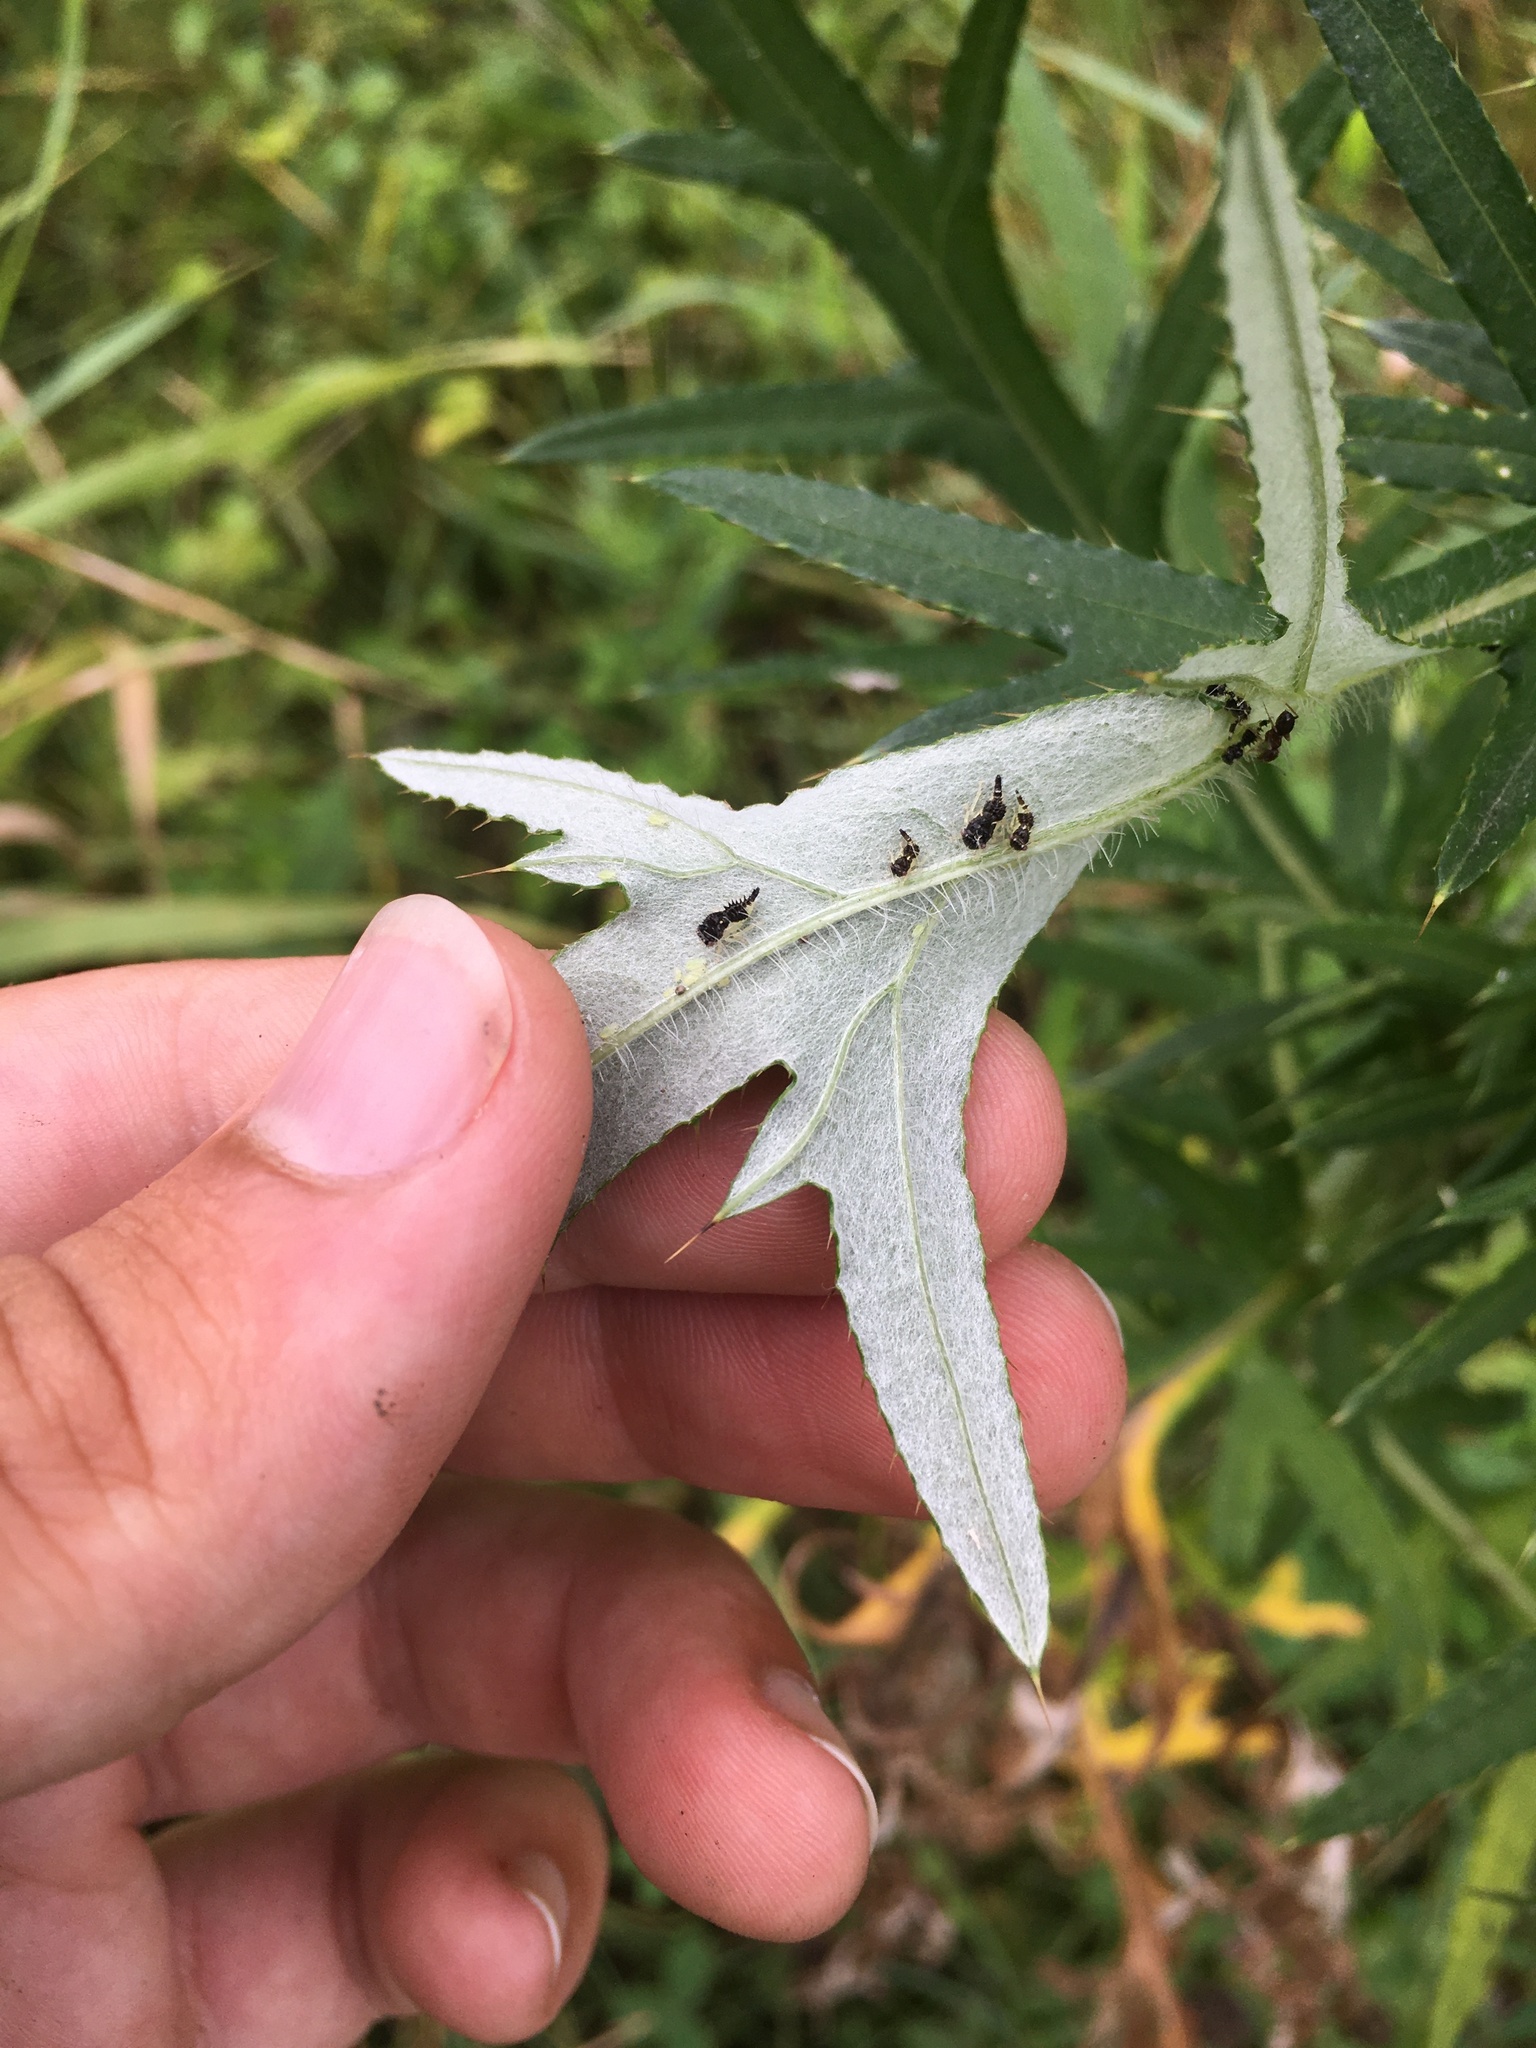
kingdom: Plantae
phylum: Tracheophyta
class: Magnoliopsida
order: Asterales
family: Asteraceae
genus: Cirsium
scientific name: Cirsium discolor
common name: Field thistle
